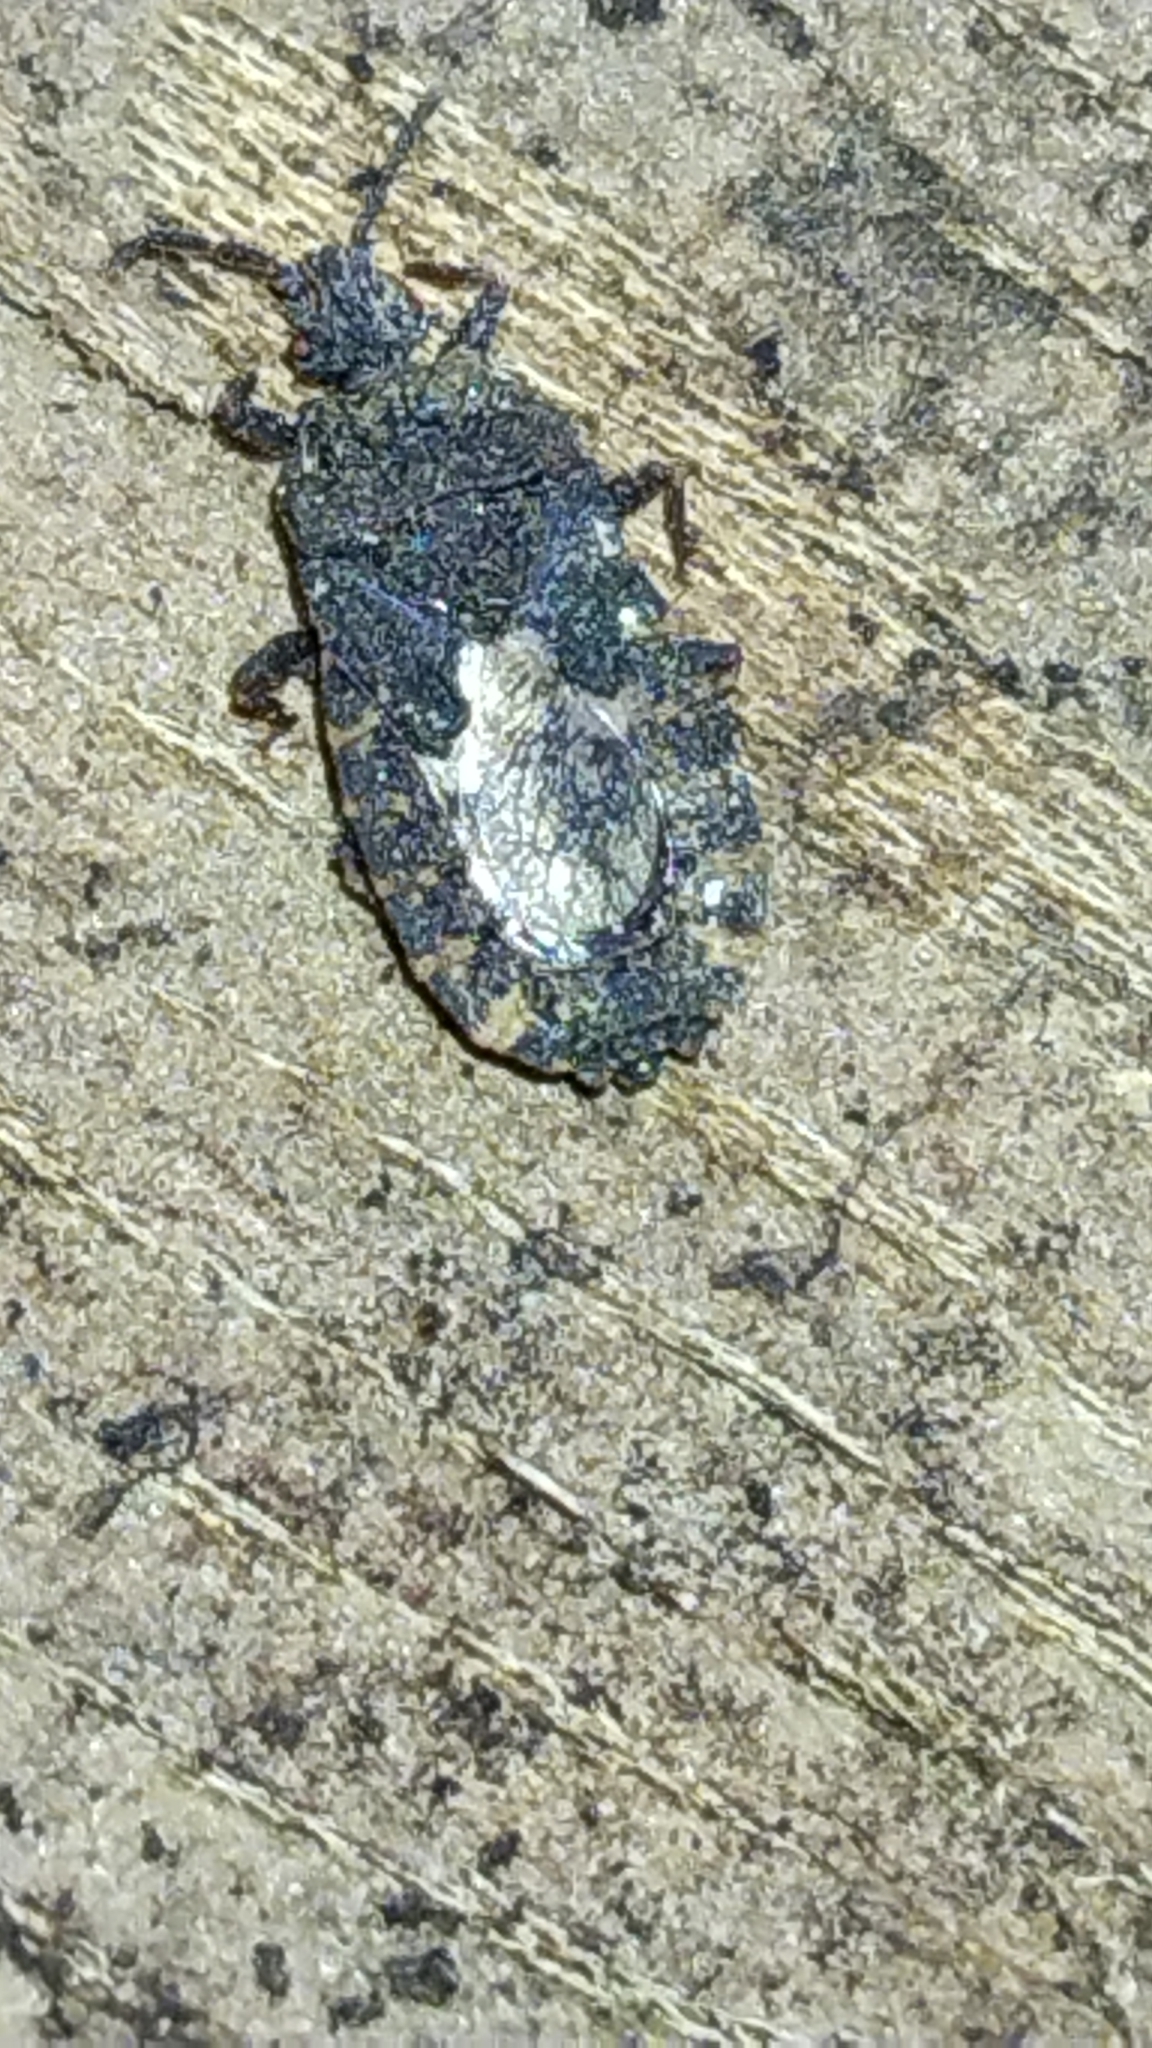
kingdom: Animalia
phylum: Arthropoda
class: Insecta
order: Hemiptera
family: Aradidae
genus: Mezira
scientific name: Mezira
